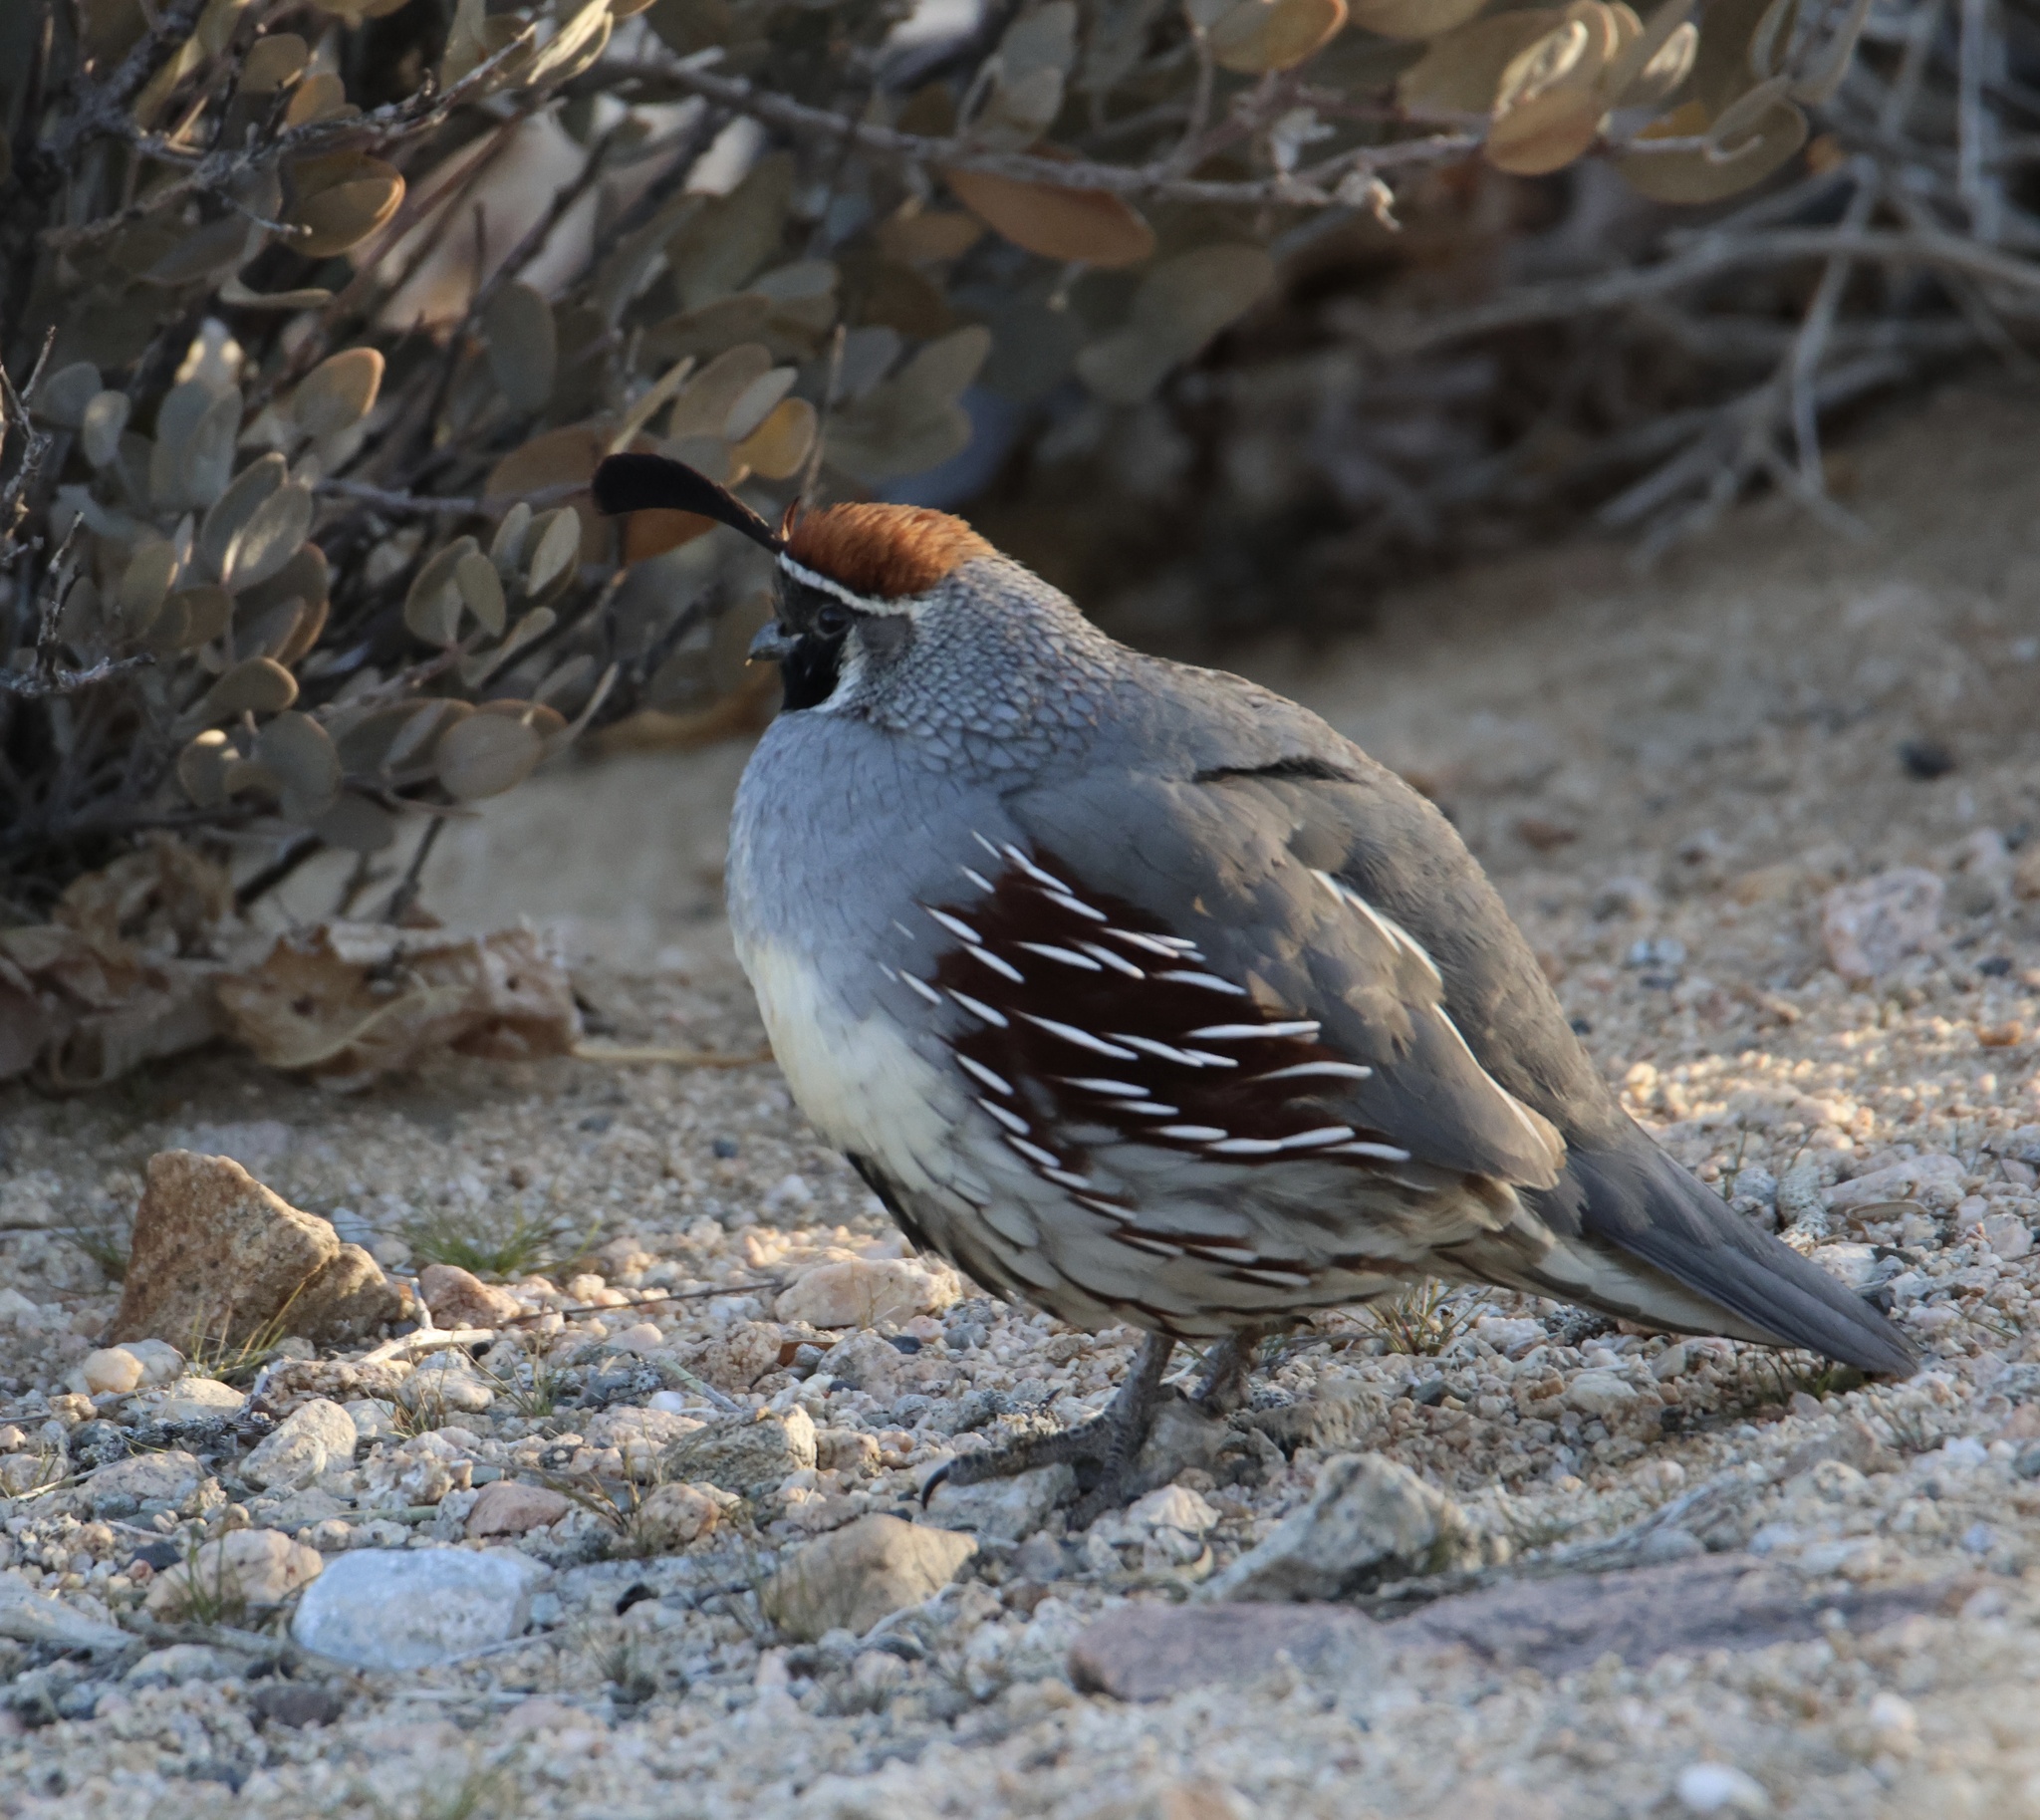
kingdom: Animalia
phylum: Chordata
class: Aves
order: Galliformes
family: Odontophoridae
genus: Callipepla
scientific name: Callipepla gambelii
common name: Gambel's quail
